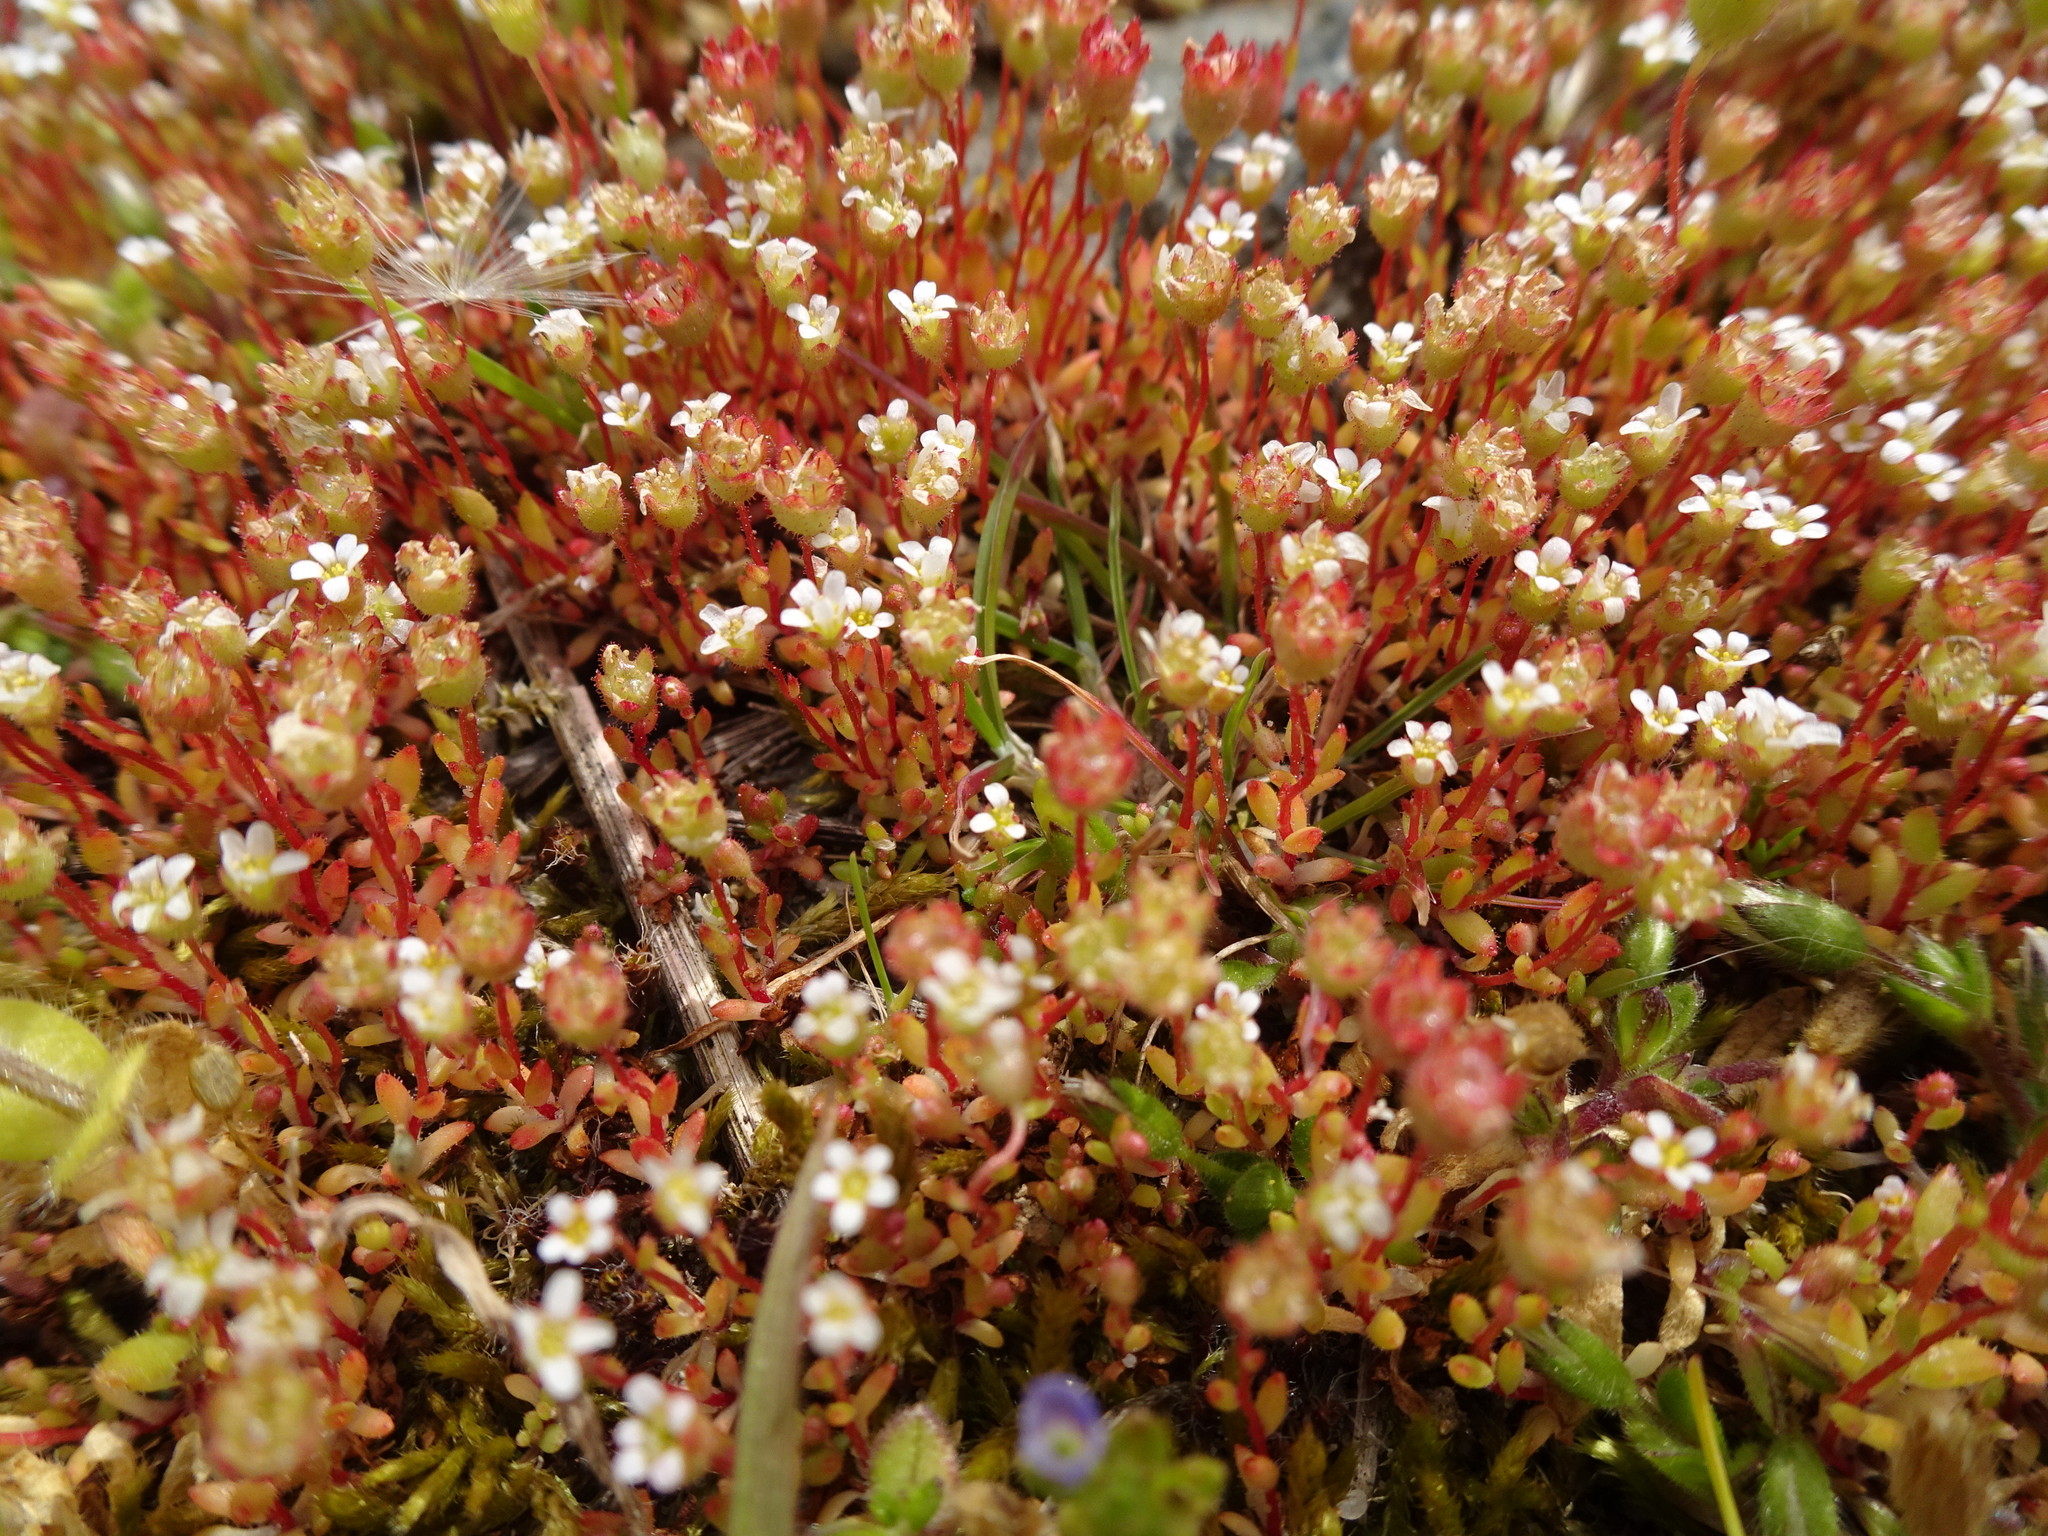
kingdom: Plantae
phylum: Tracheophyta
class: Magnoliopsida
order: Saxifragales
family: Saxifragaceae
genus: Saxifraga
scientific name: Saxifraga tridactylites
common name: Rue-leaved saxifrage
